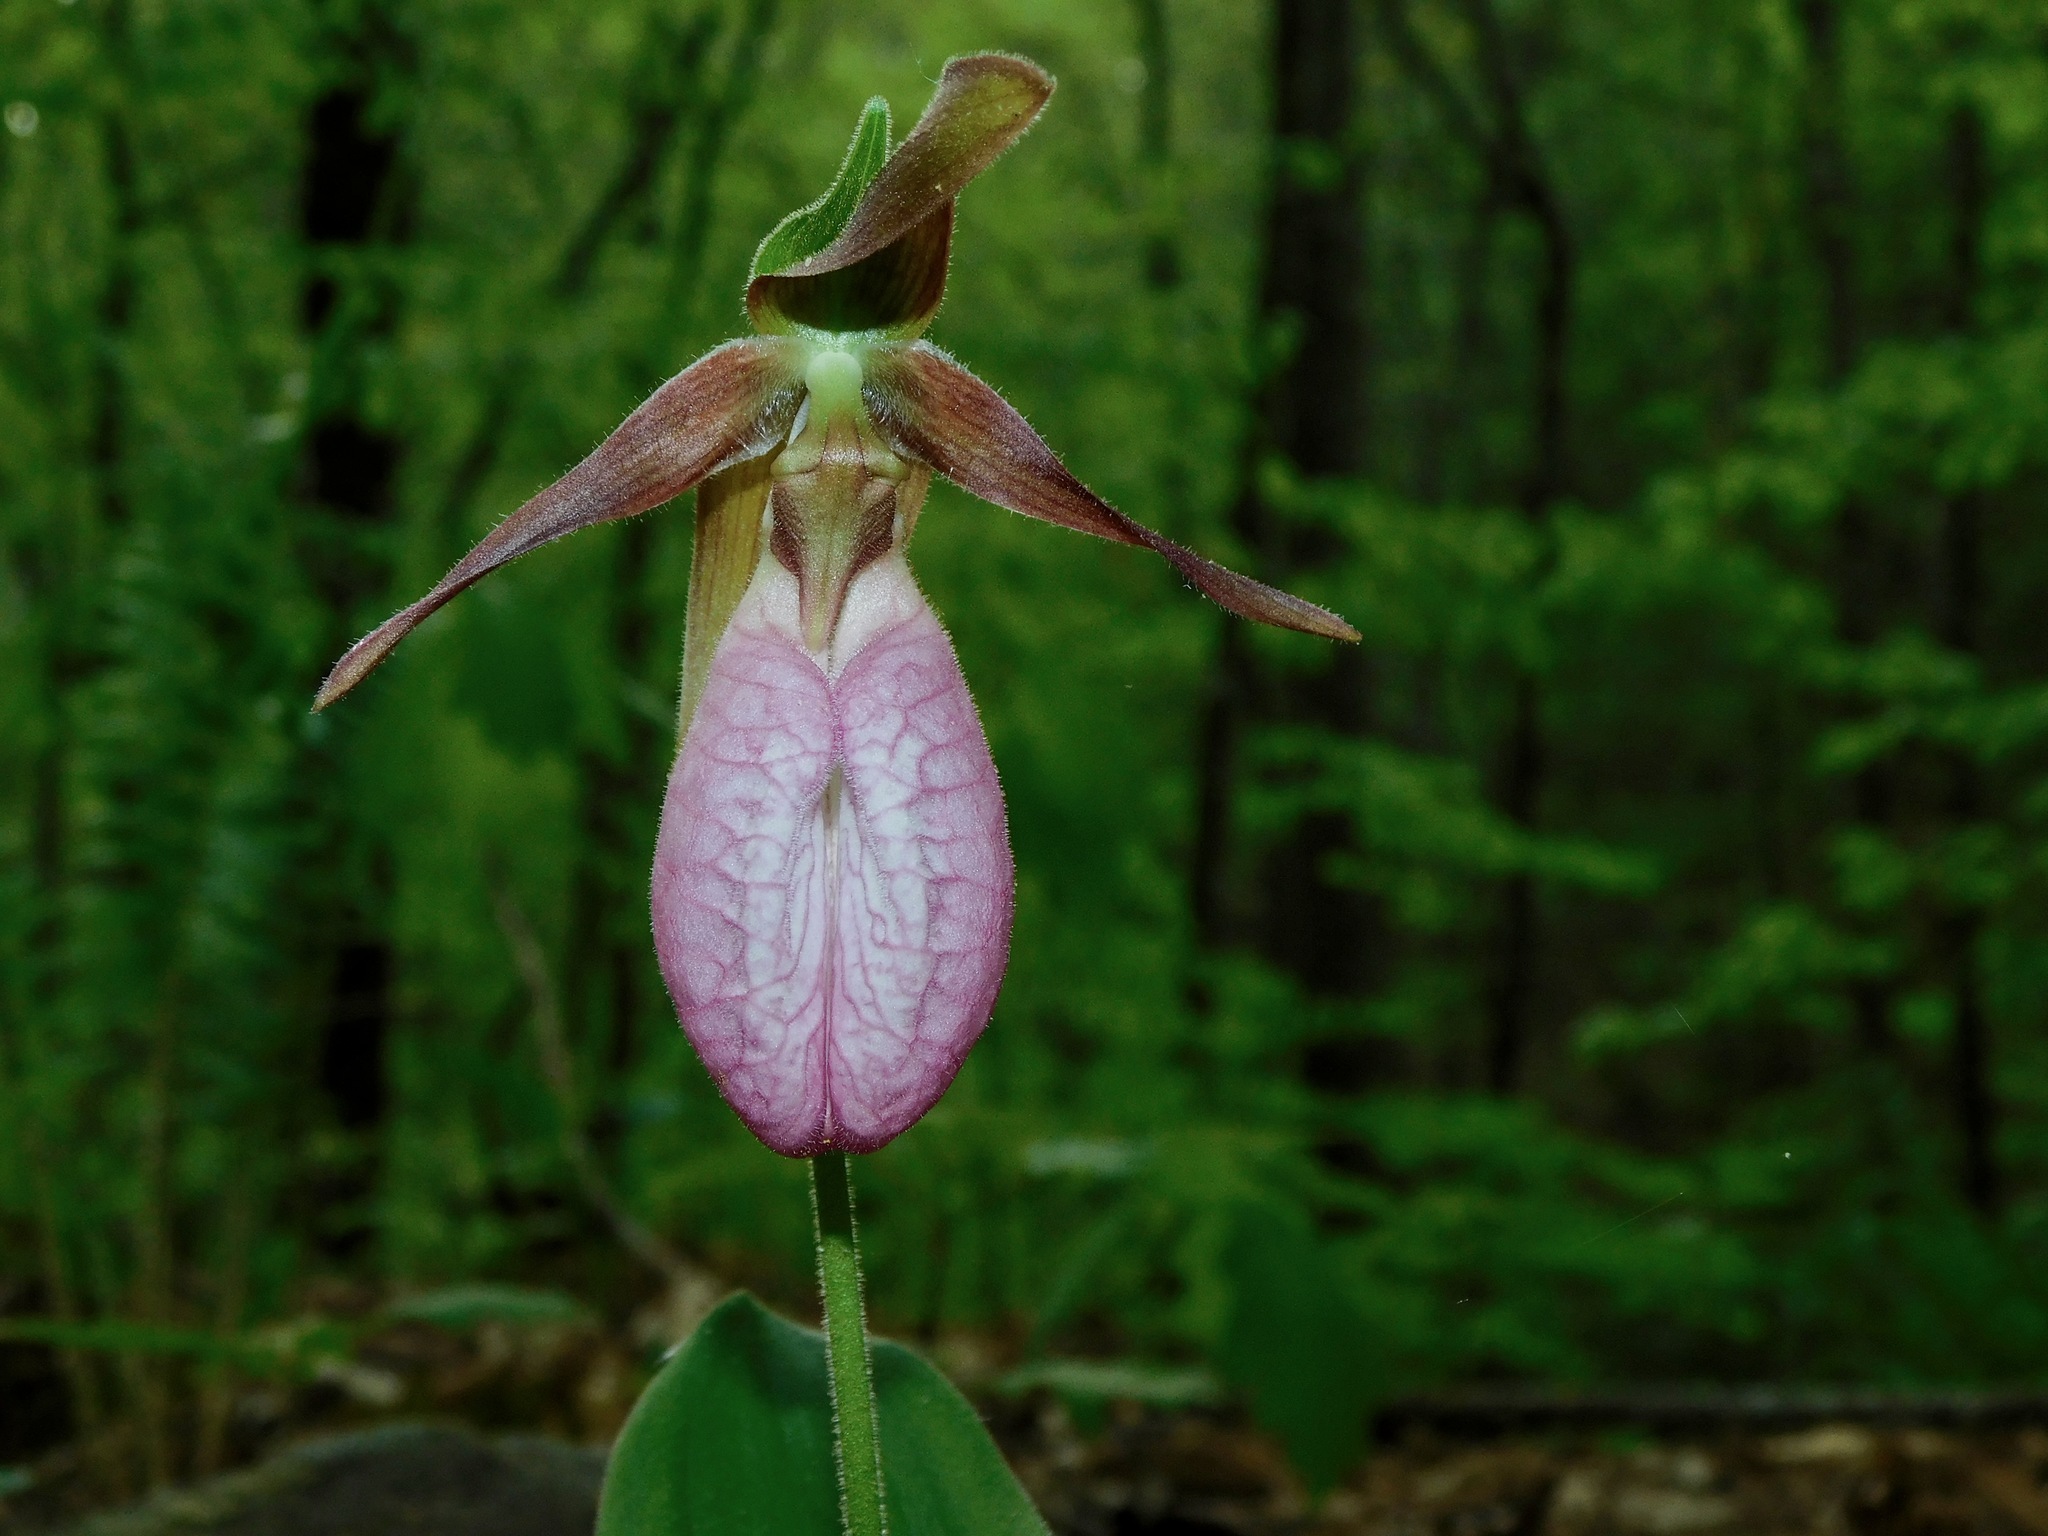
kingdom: Plantae
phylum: Tracheophyta
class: Liliopsida
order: Asparagales
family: Orchidaceae
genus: Cypripedium
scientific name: Cypripedium acaule
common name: Pink lady's-slipper
